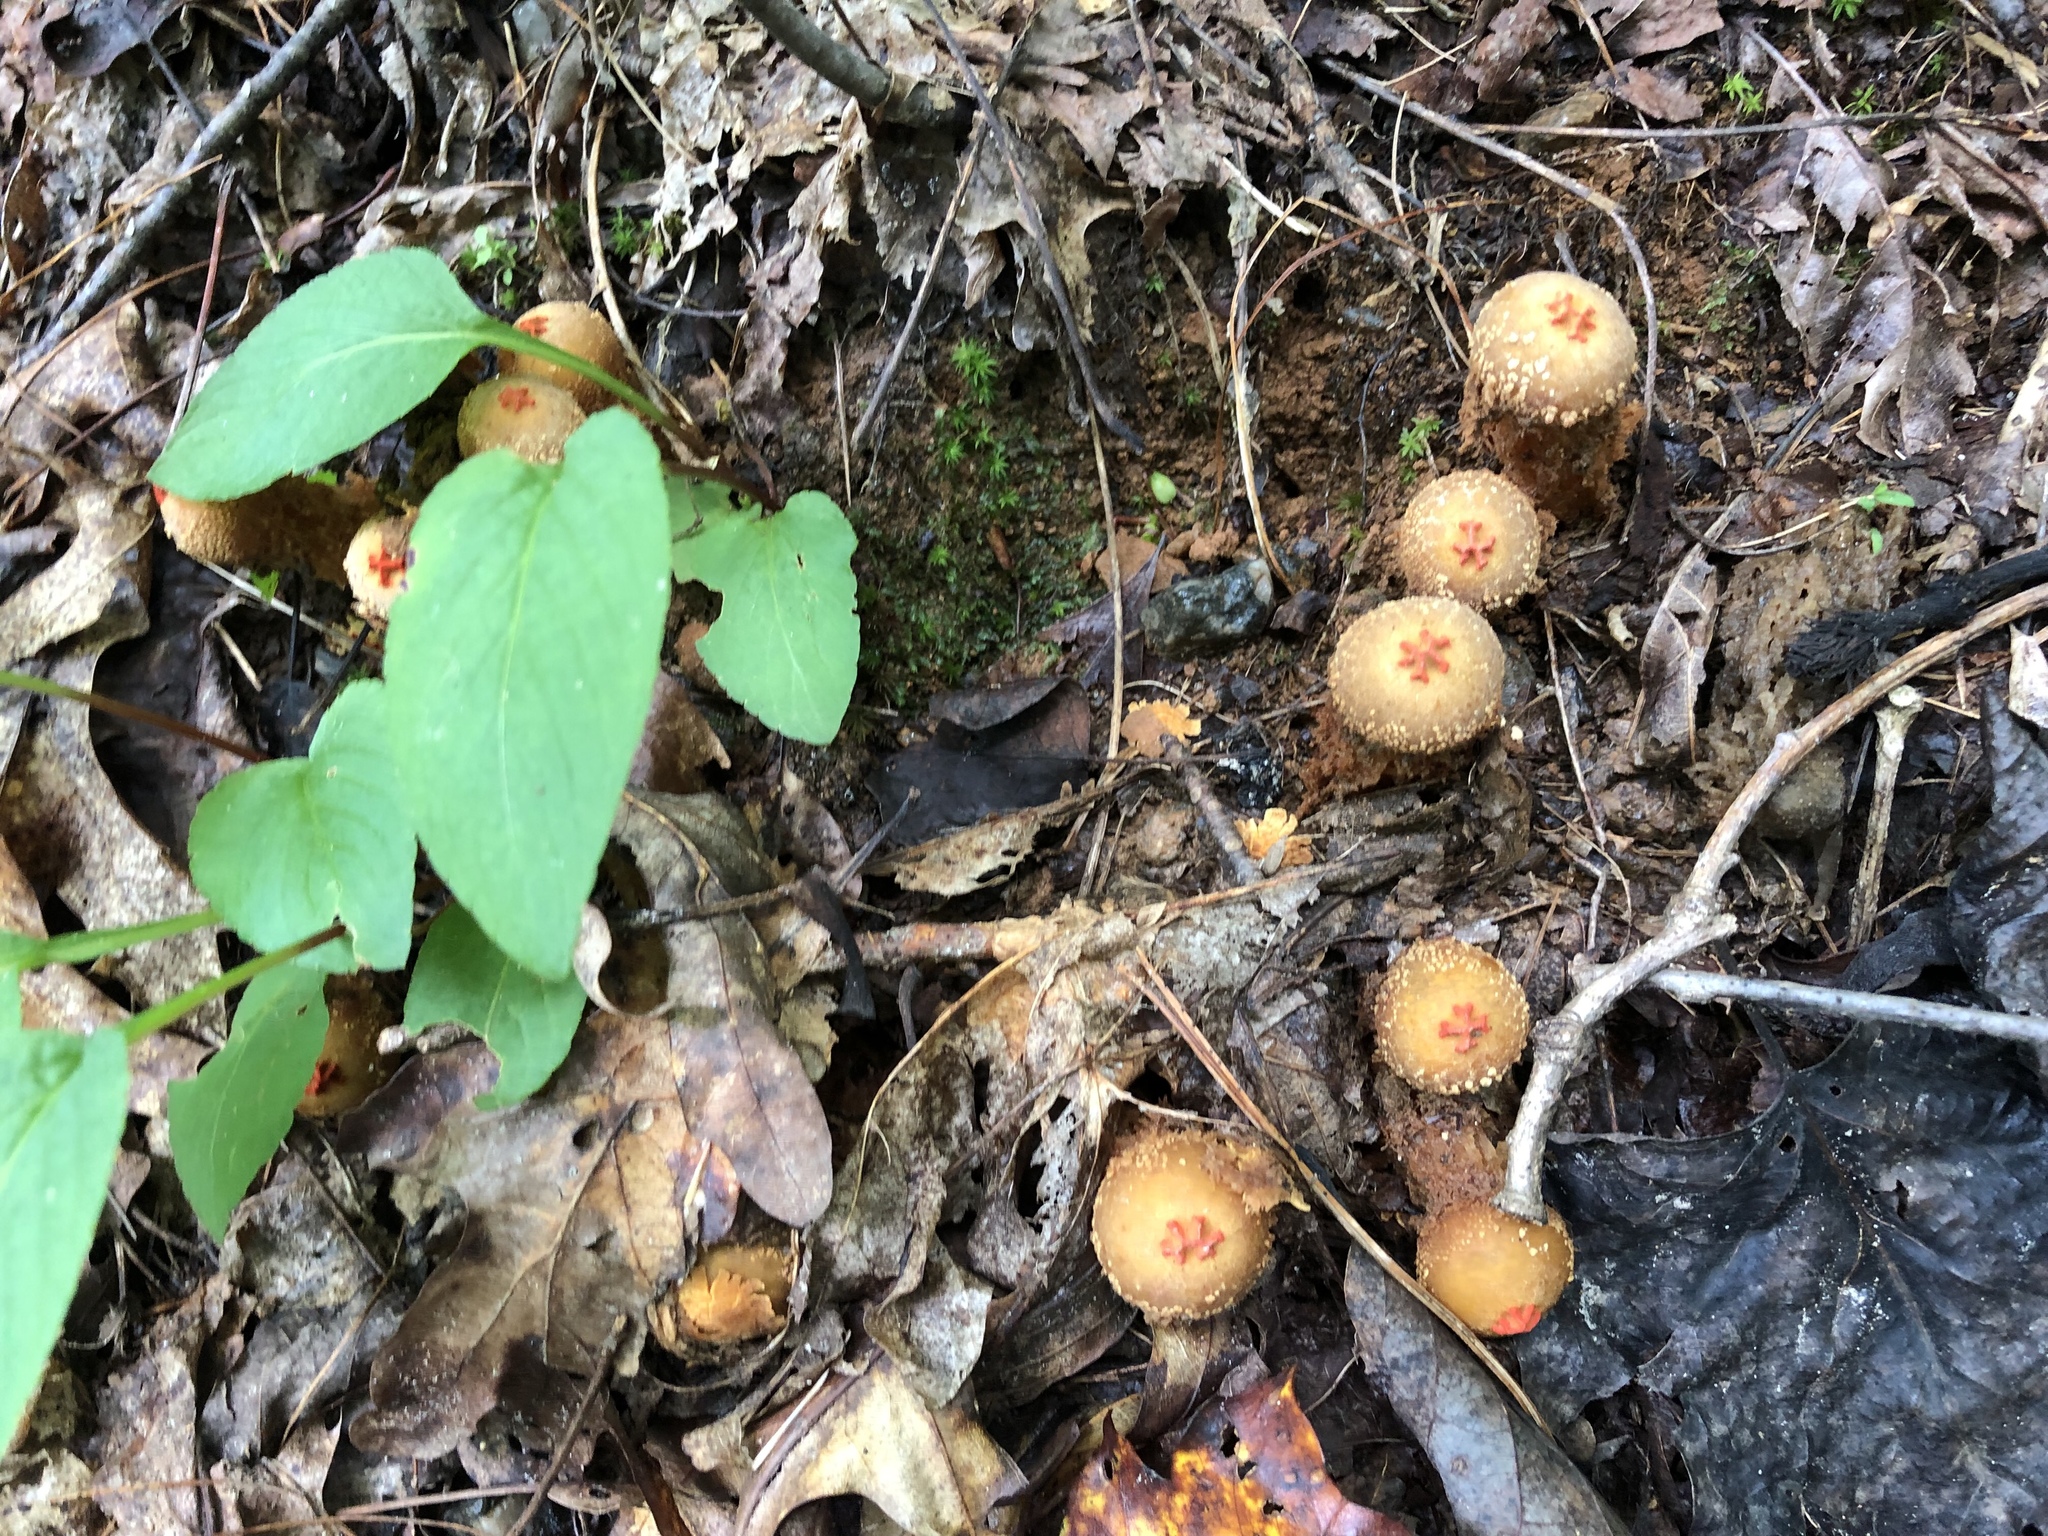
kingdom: Fungi
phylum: Basidiomycota
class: Agaricomycetes
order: Boletales
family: Calostomataceae
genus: Calostoma
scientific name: Calostoma ravenelii
